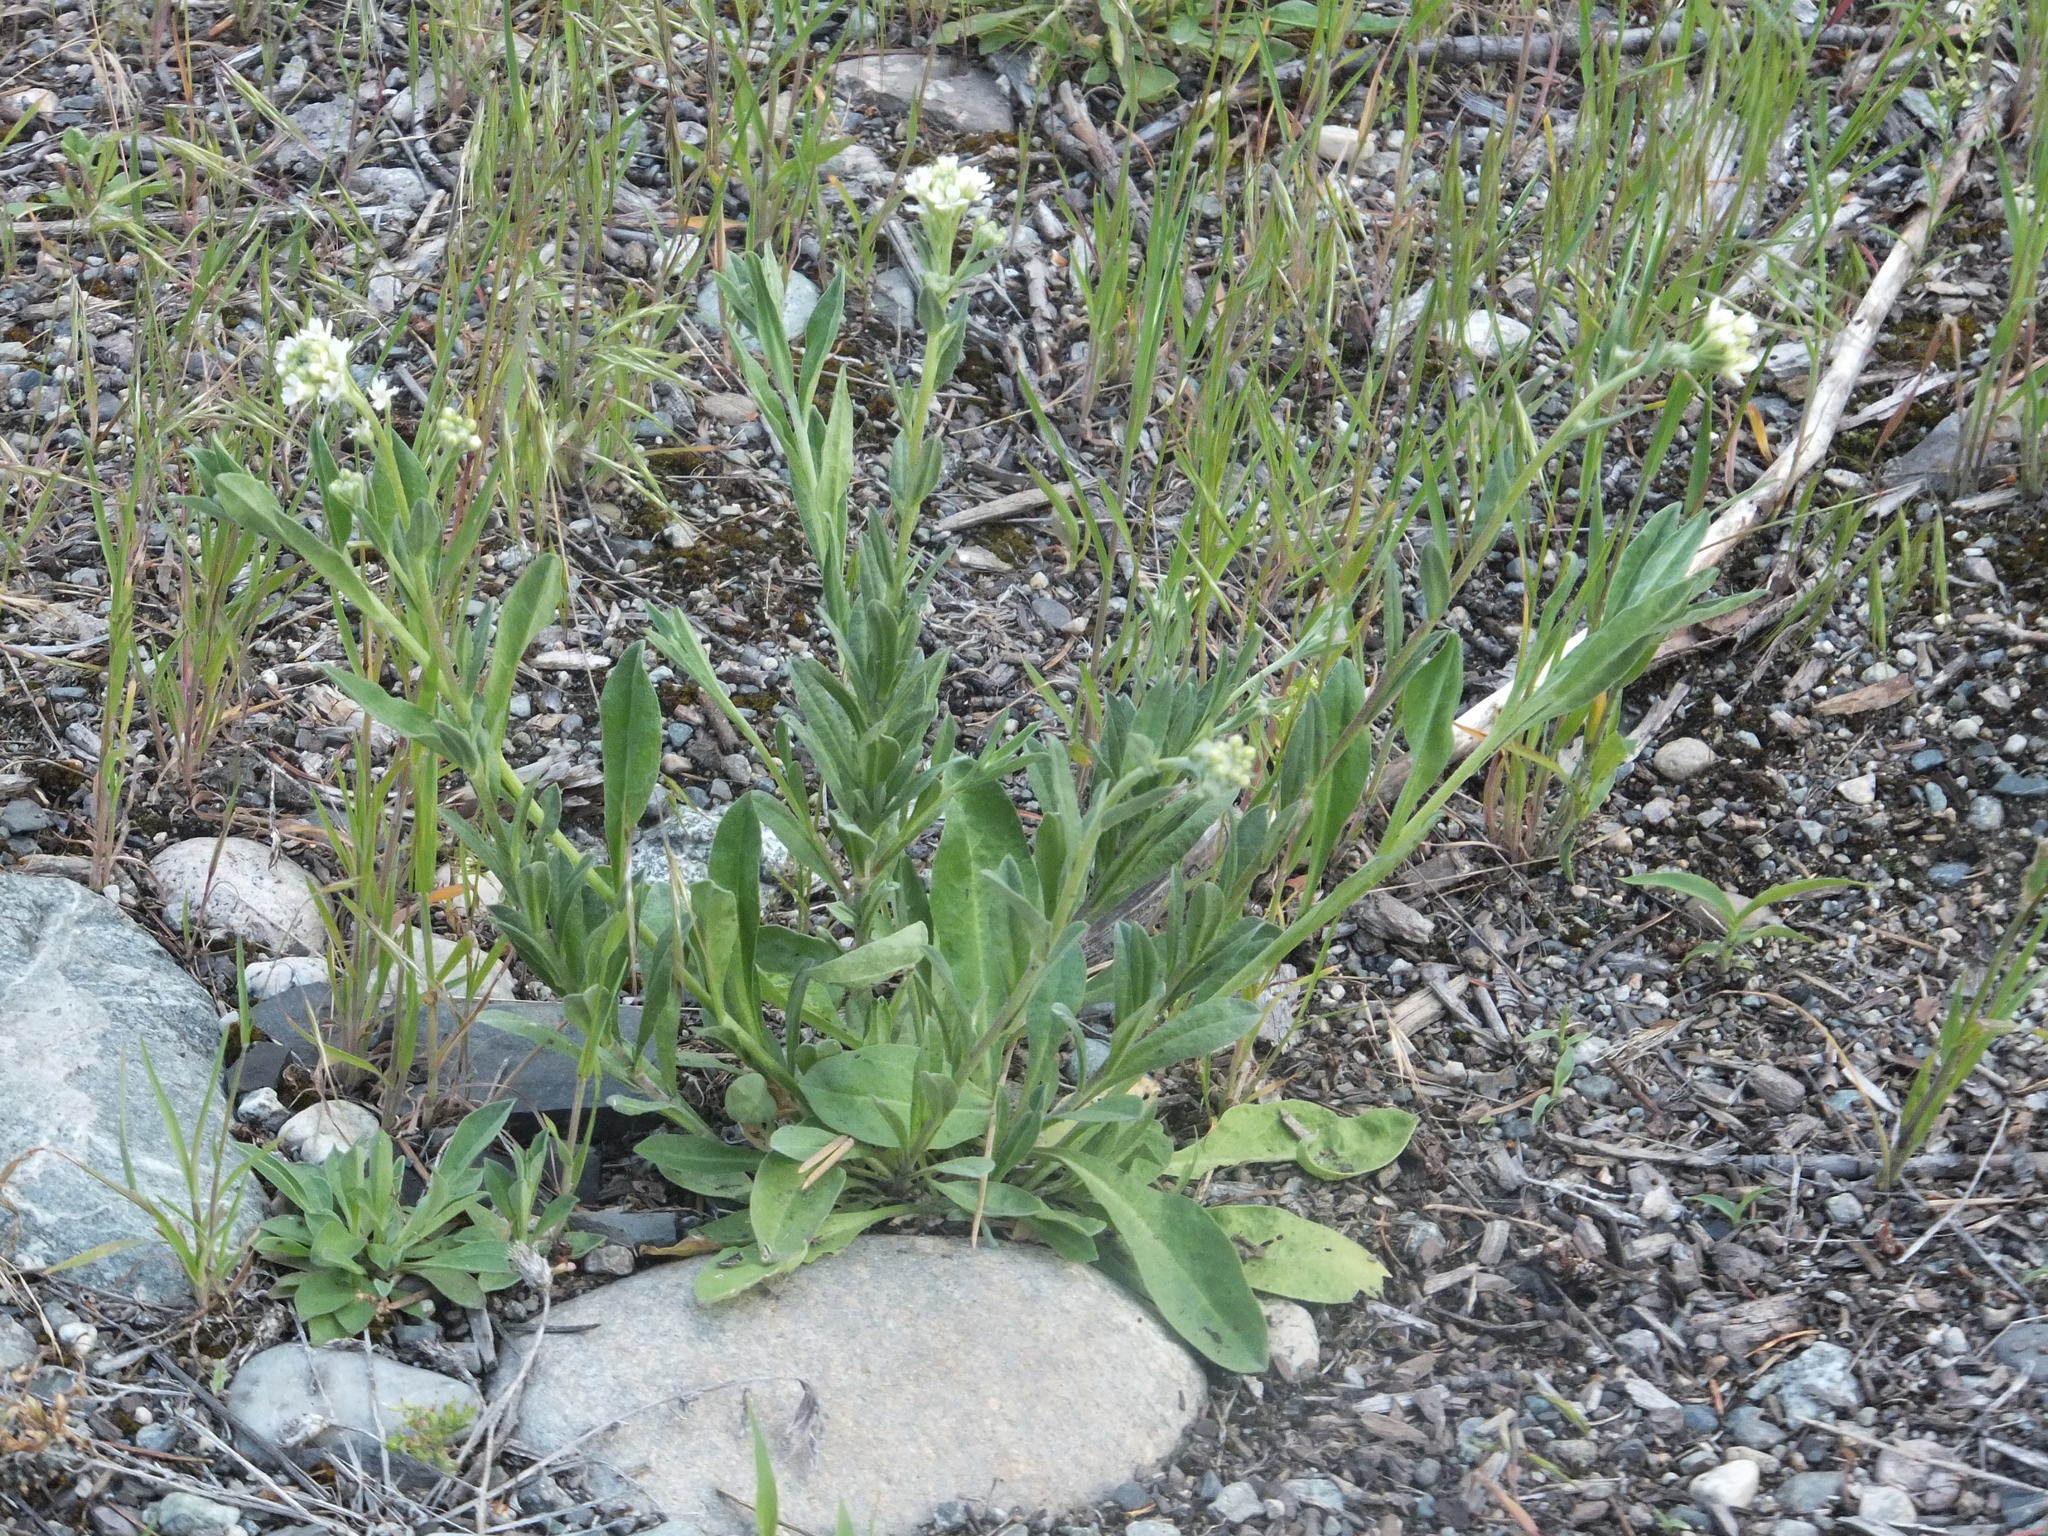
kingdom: Plantae
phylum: Tracheophyta
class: Magnoliopsida
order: Brassicales
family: Brassicaceae
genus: Lepidium
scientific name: Lepidium campestre
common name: Field pepperwort
